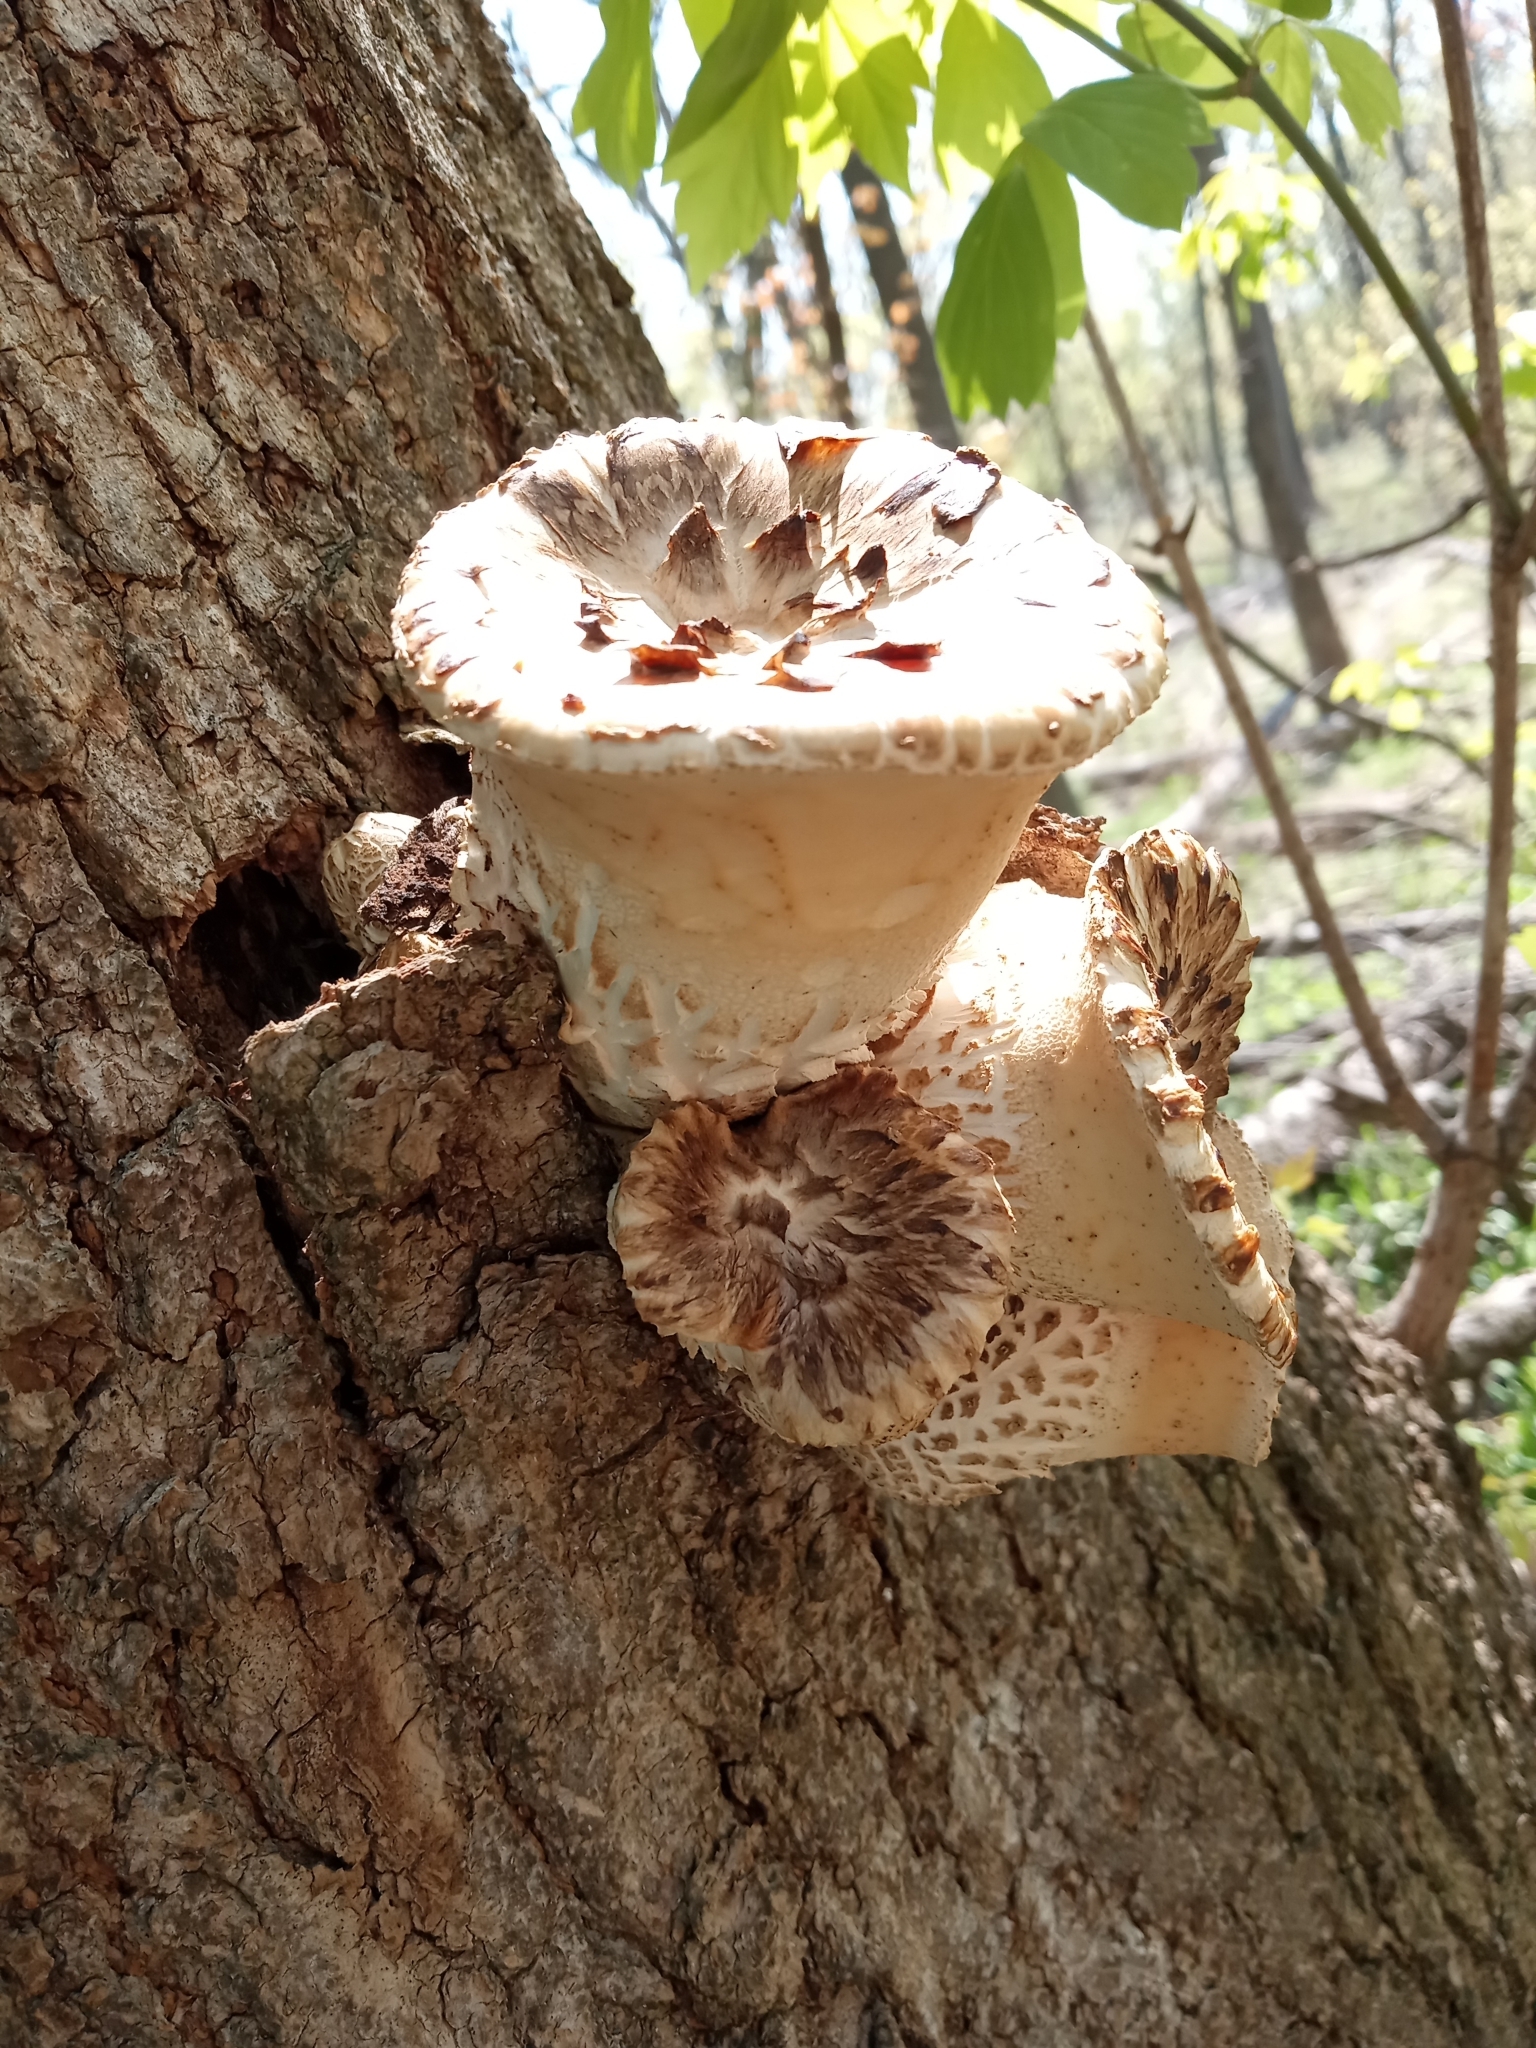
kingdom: Fungi
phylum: Basidiomycota
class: Agaricomycetes
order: Polyporales
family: Polyporaceae
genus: Cerioporus
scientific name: Cerioporus squamosus
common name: Dryad's saddle
